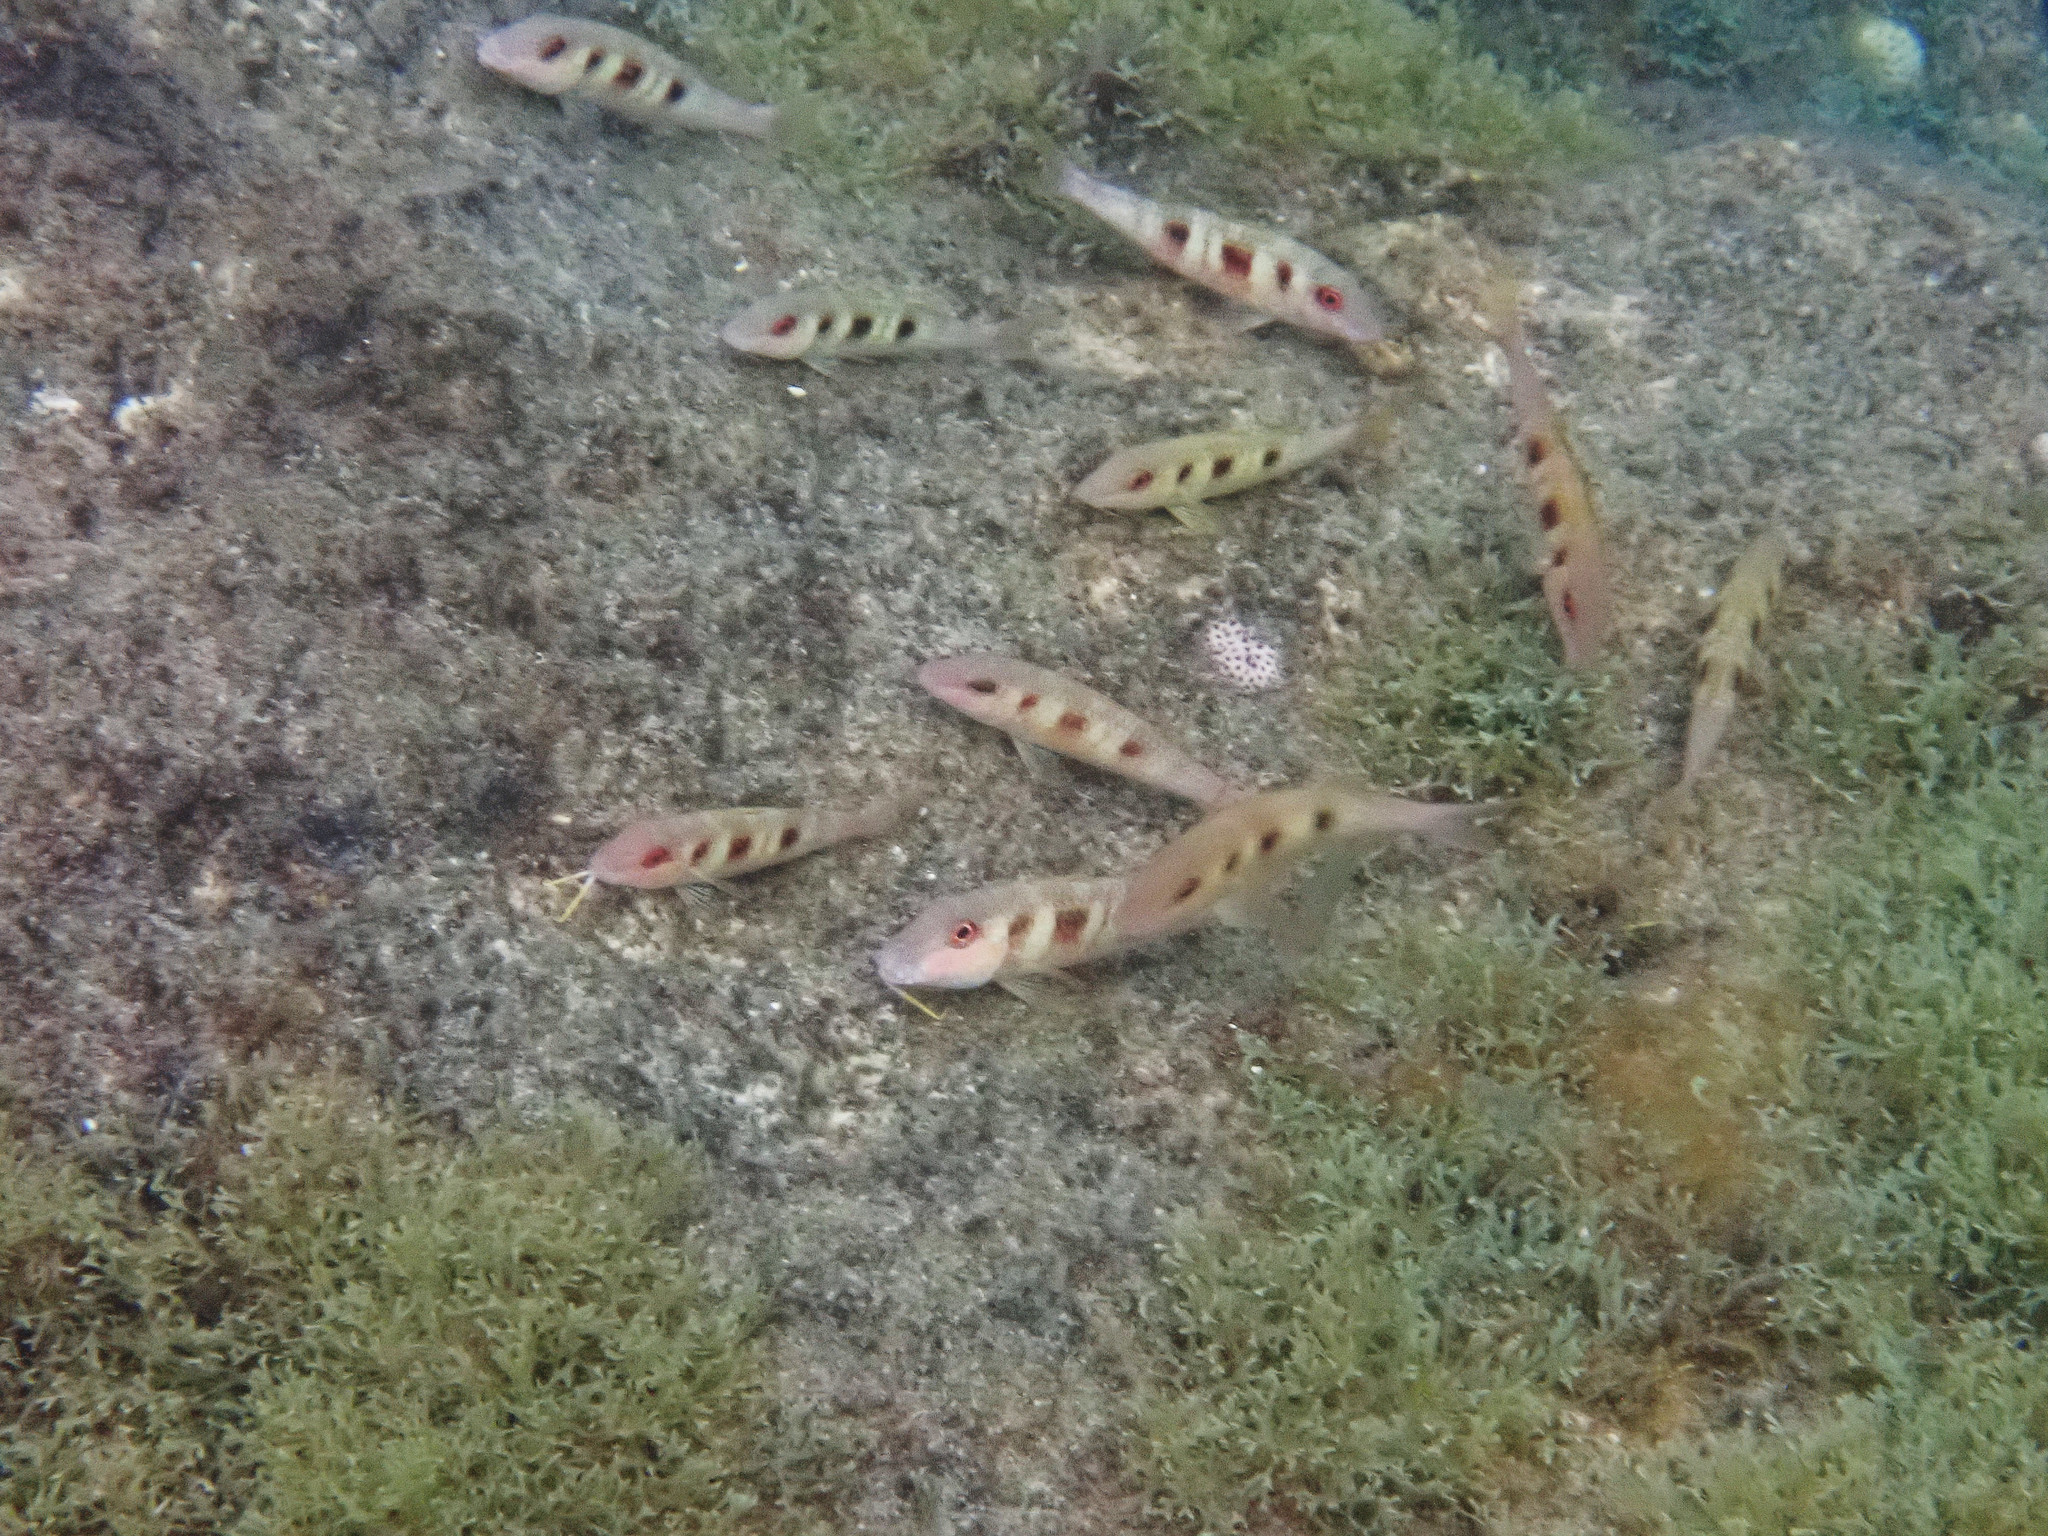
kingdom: Animalia
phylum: Chordata
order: Perciformes
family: Mullidae
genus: Pseudupeneus
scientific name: Pseudupeneus maculatus
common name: Spotted goatfish
